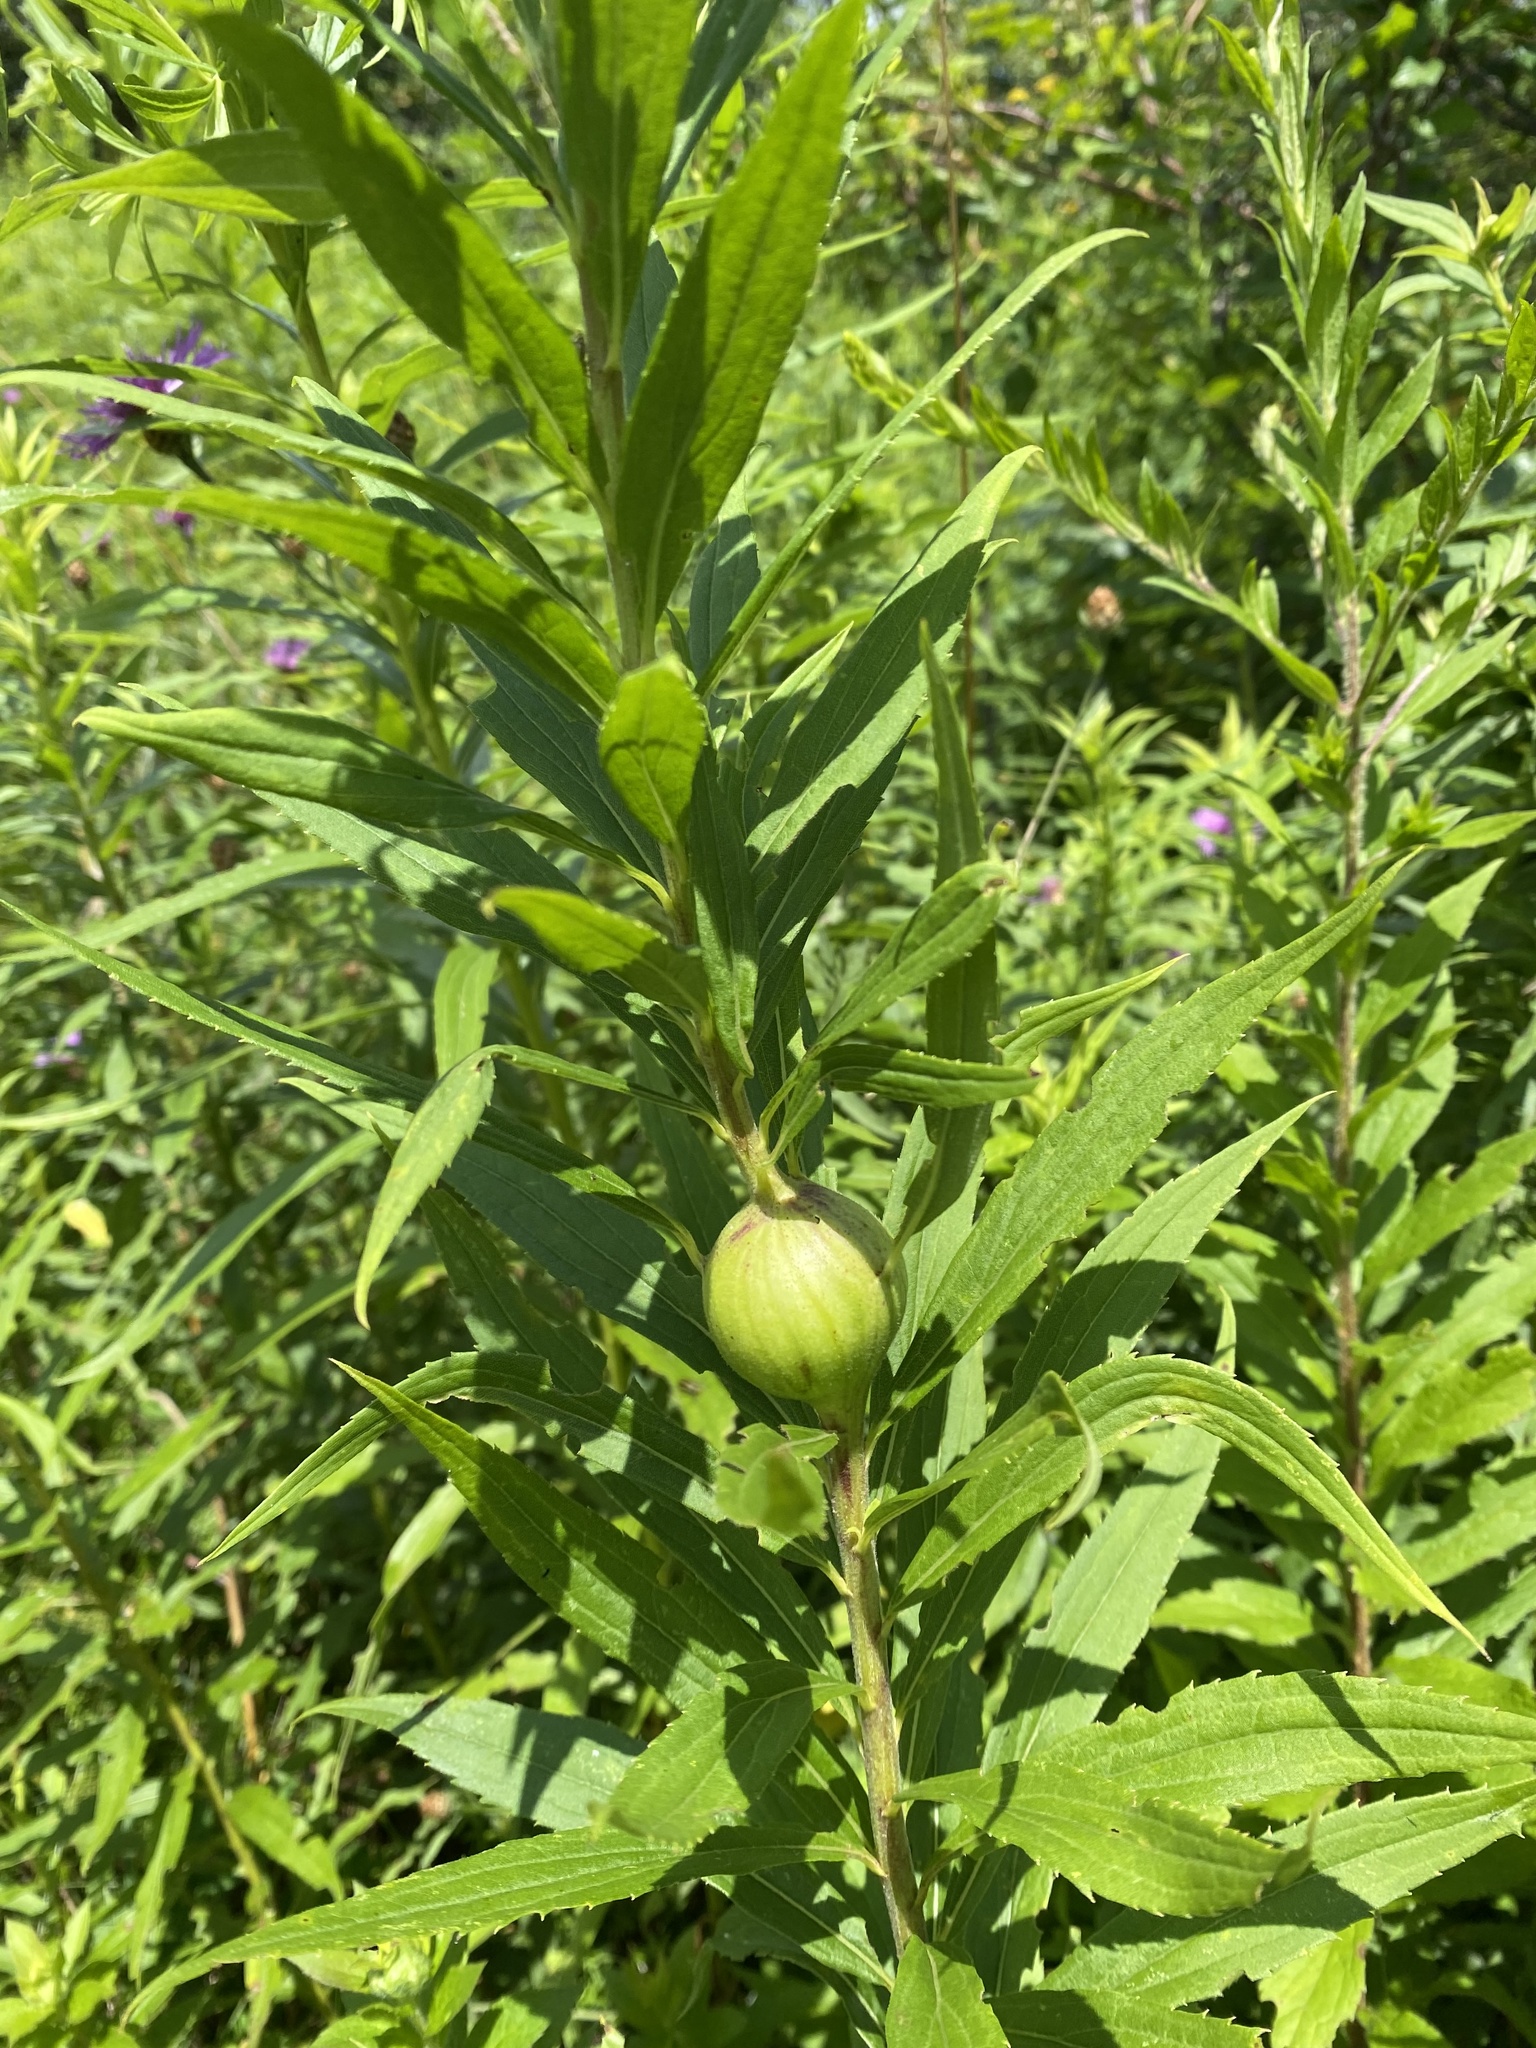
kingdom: Animalia
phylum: Arthropoda
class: Insecta
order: Diptera
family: Tephritidae
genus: Eurosta
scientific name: Eurosta solidaginis
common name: Goldenrod gall fly
